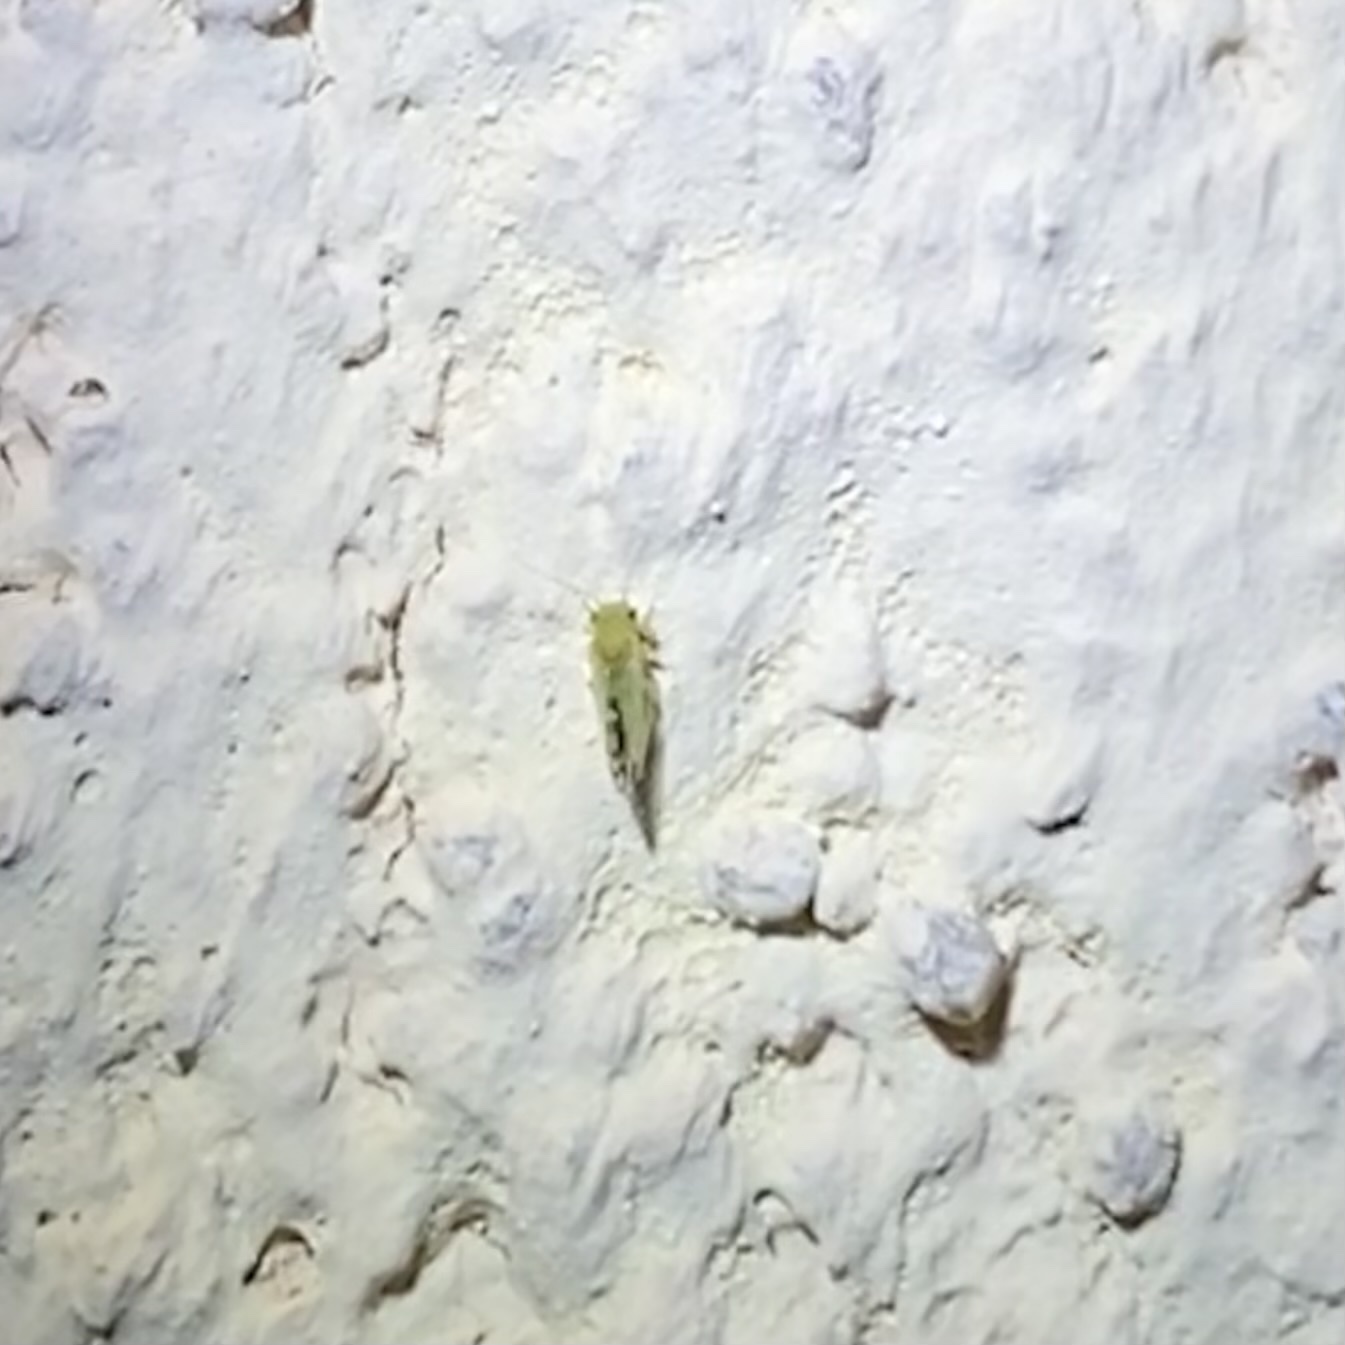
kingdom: Animalia
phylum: Arthropoda
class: Insecta
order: Hemiptera
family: Psyllidae
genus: Heteropsylla
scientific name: Heteropsylla texana
